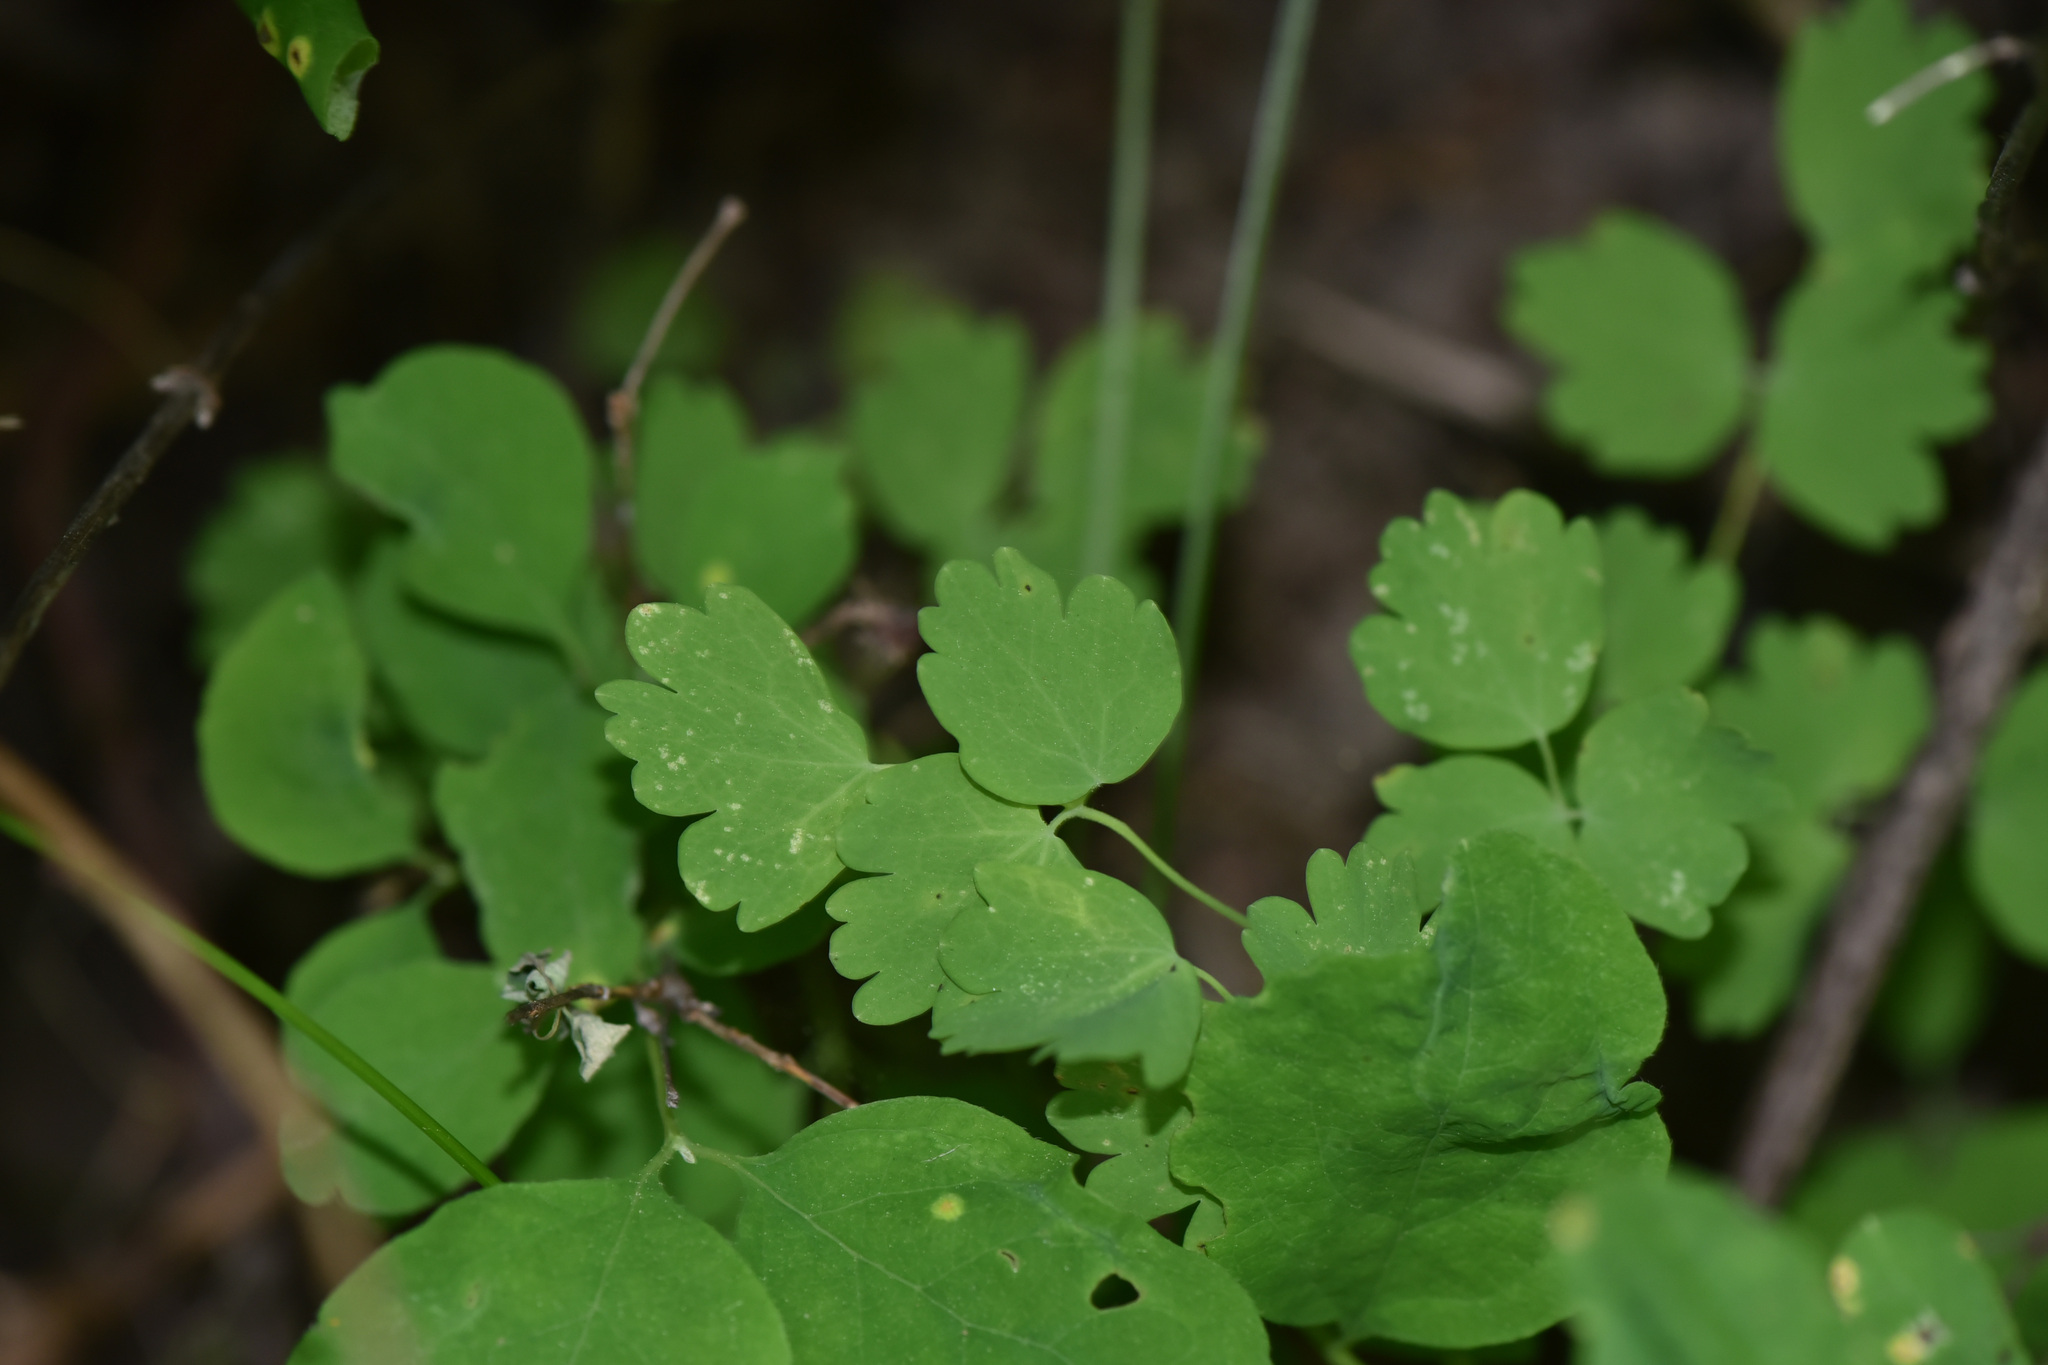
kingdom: Plantae
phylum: Tracheophyta
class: Magnoliopsida
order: Ranunculales
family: Ranunculaceae
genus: Thalictrum
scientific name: Thalictrum occidentale
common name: Western meadow-rue
